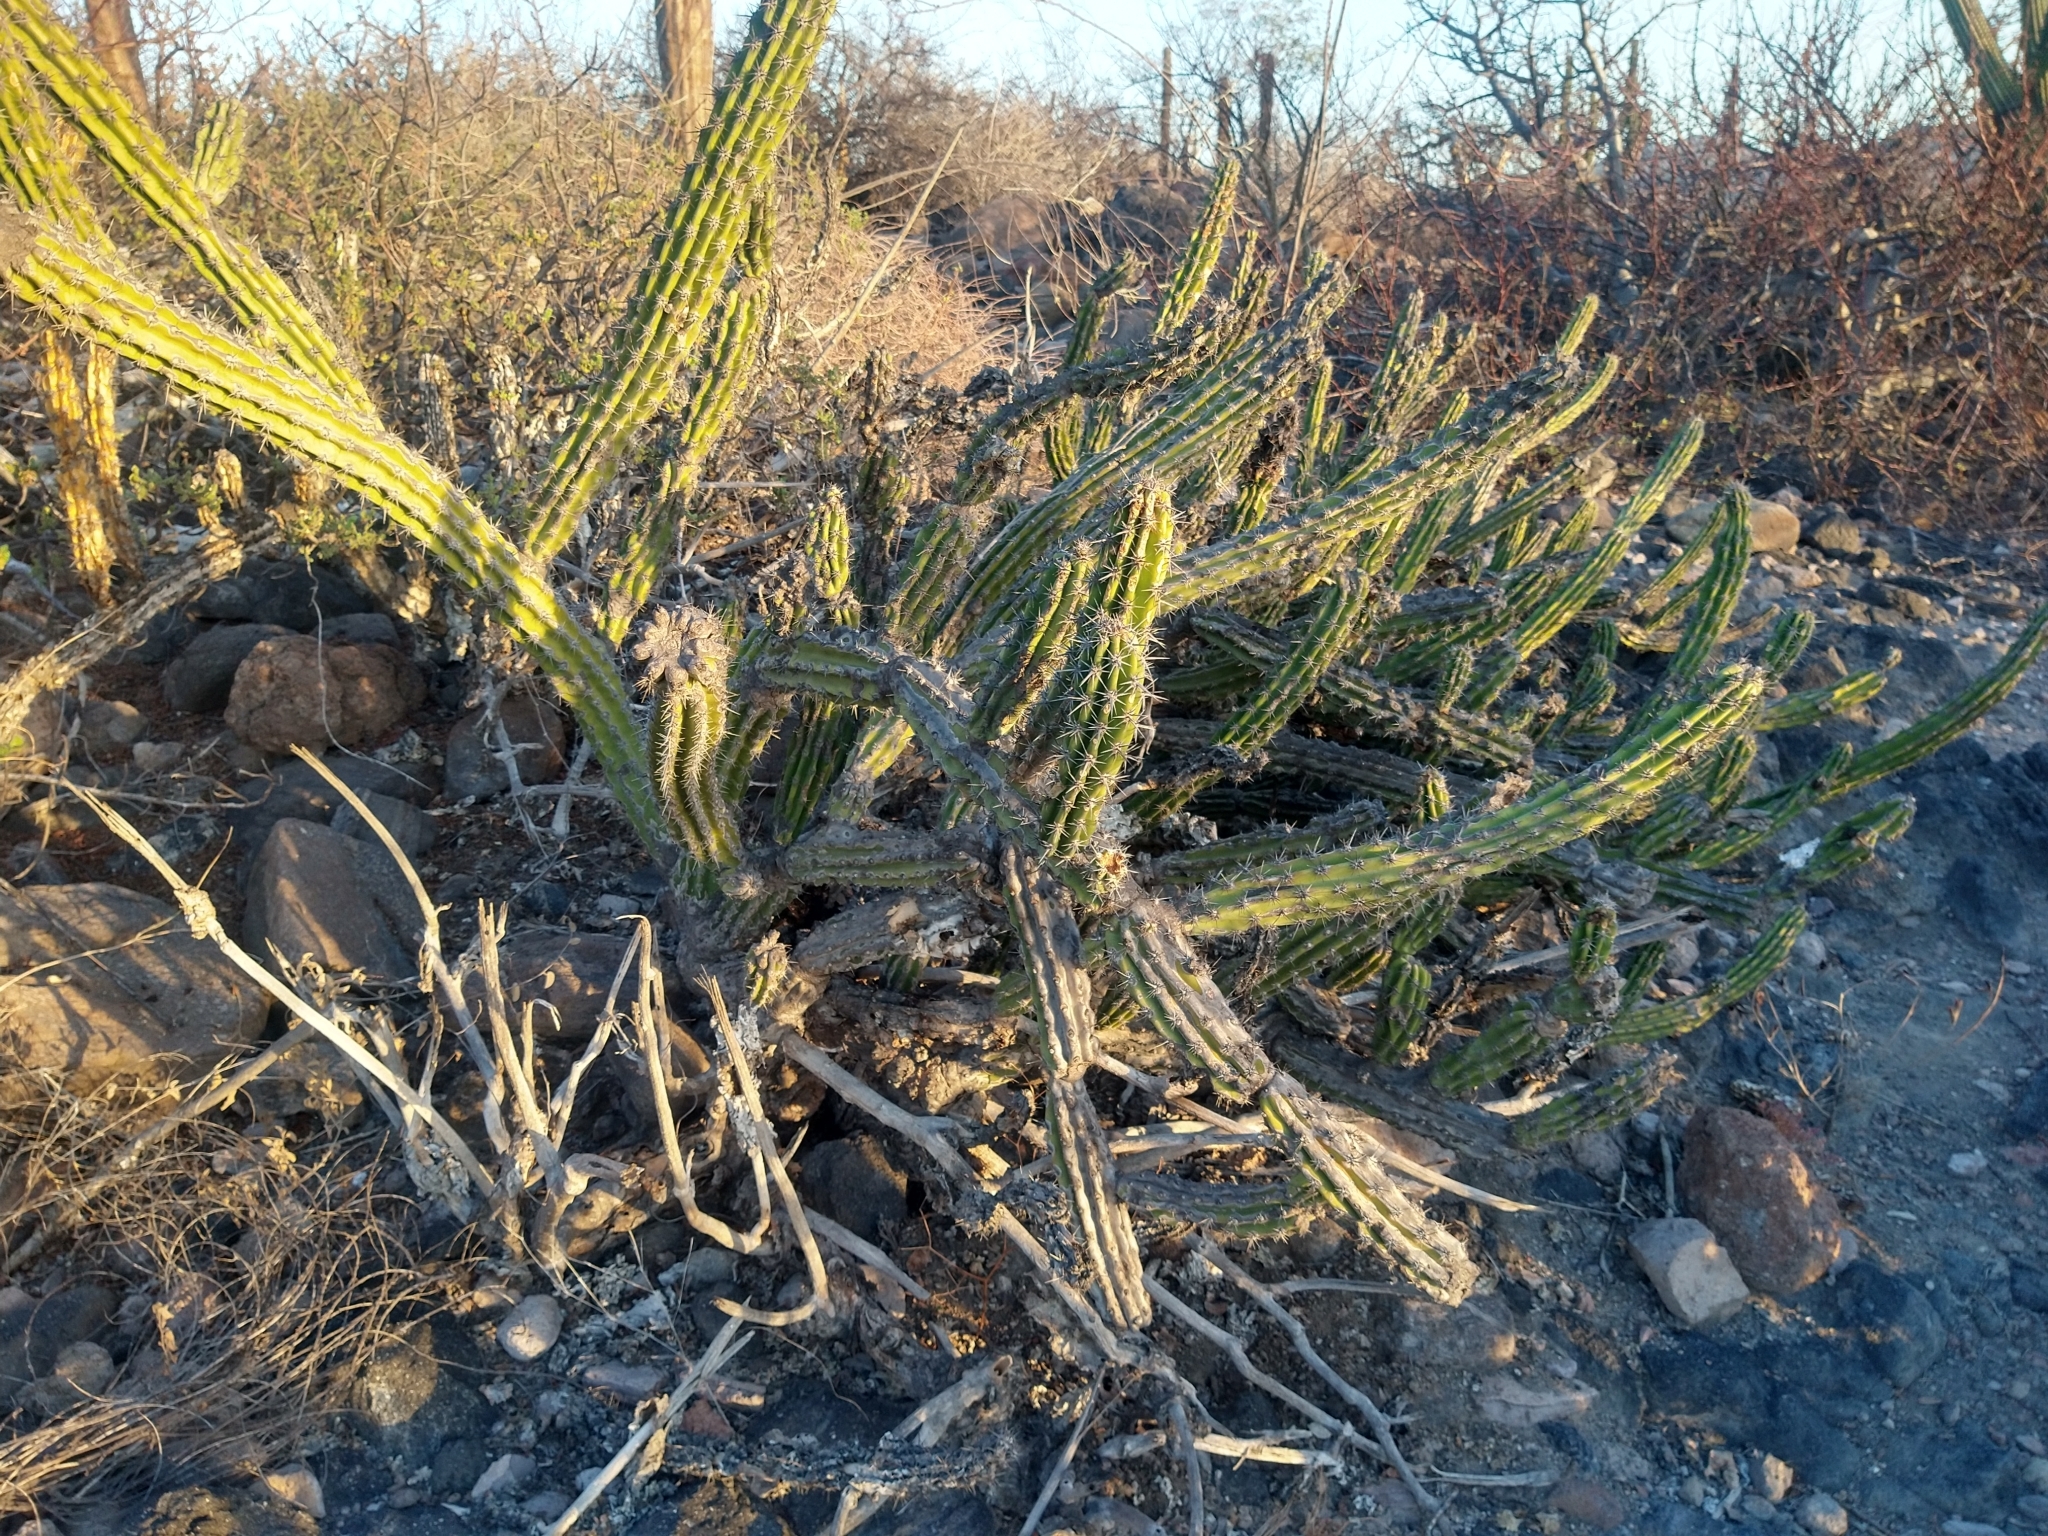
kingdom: Plantae
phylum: Tracheophyta
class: Magnoliopsida
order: Caryophyllales
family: Cactaceae
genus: Stenocereus
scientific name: Stenocereus gummosus
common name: Dagger cactus
